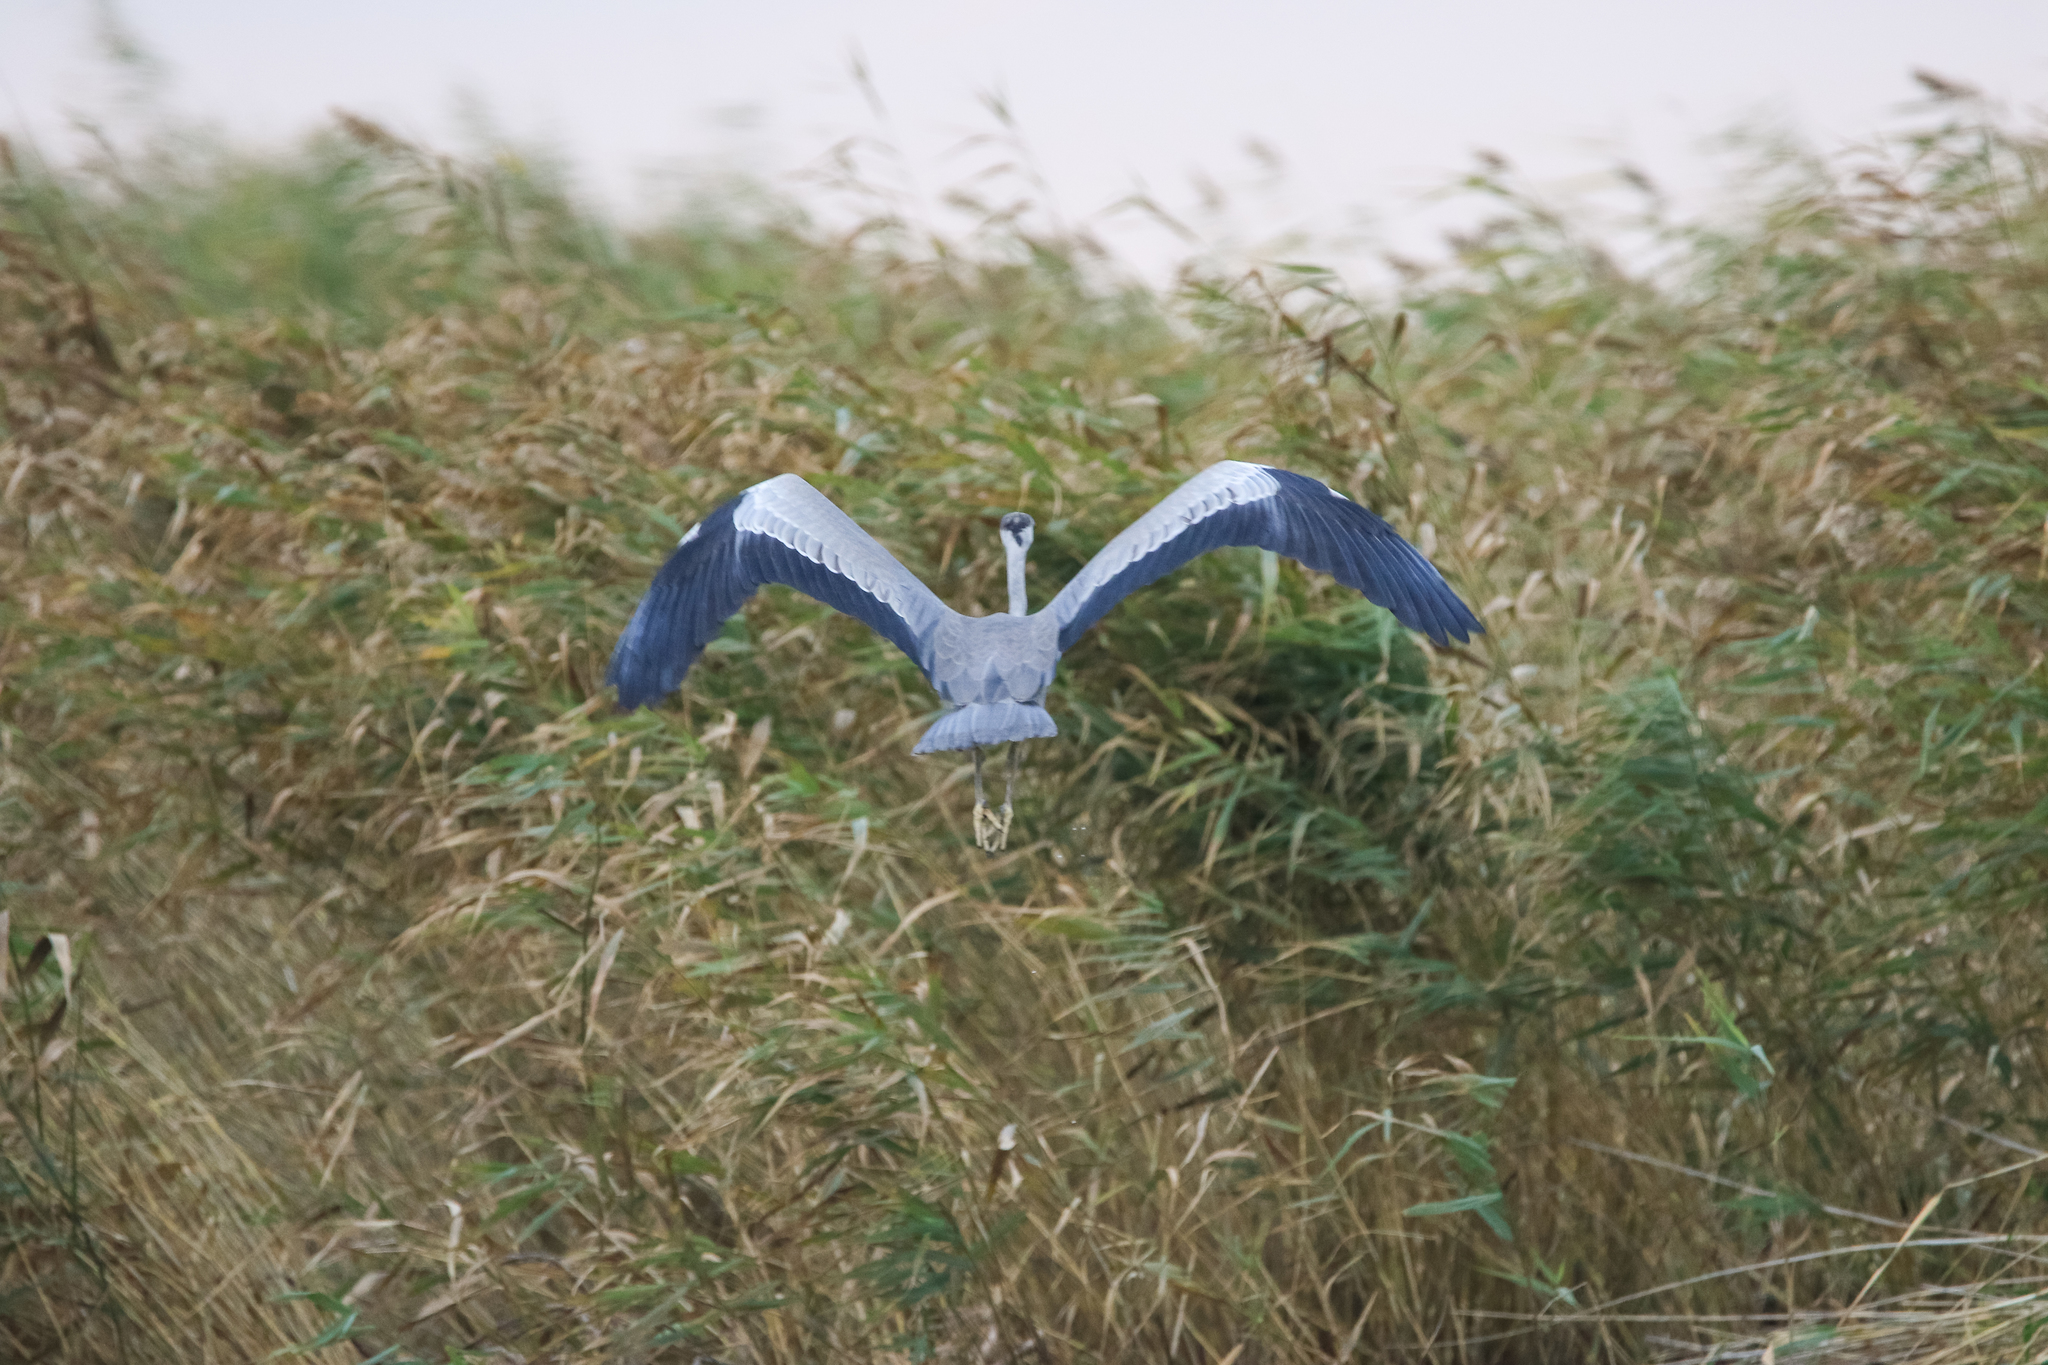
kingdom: Animalia
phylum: Chordata
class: Aves
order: Pelecaniformes
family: Ardeidae
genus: Ardea
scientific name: Ardea cinerea
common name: Grey heron
